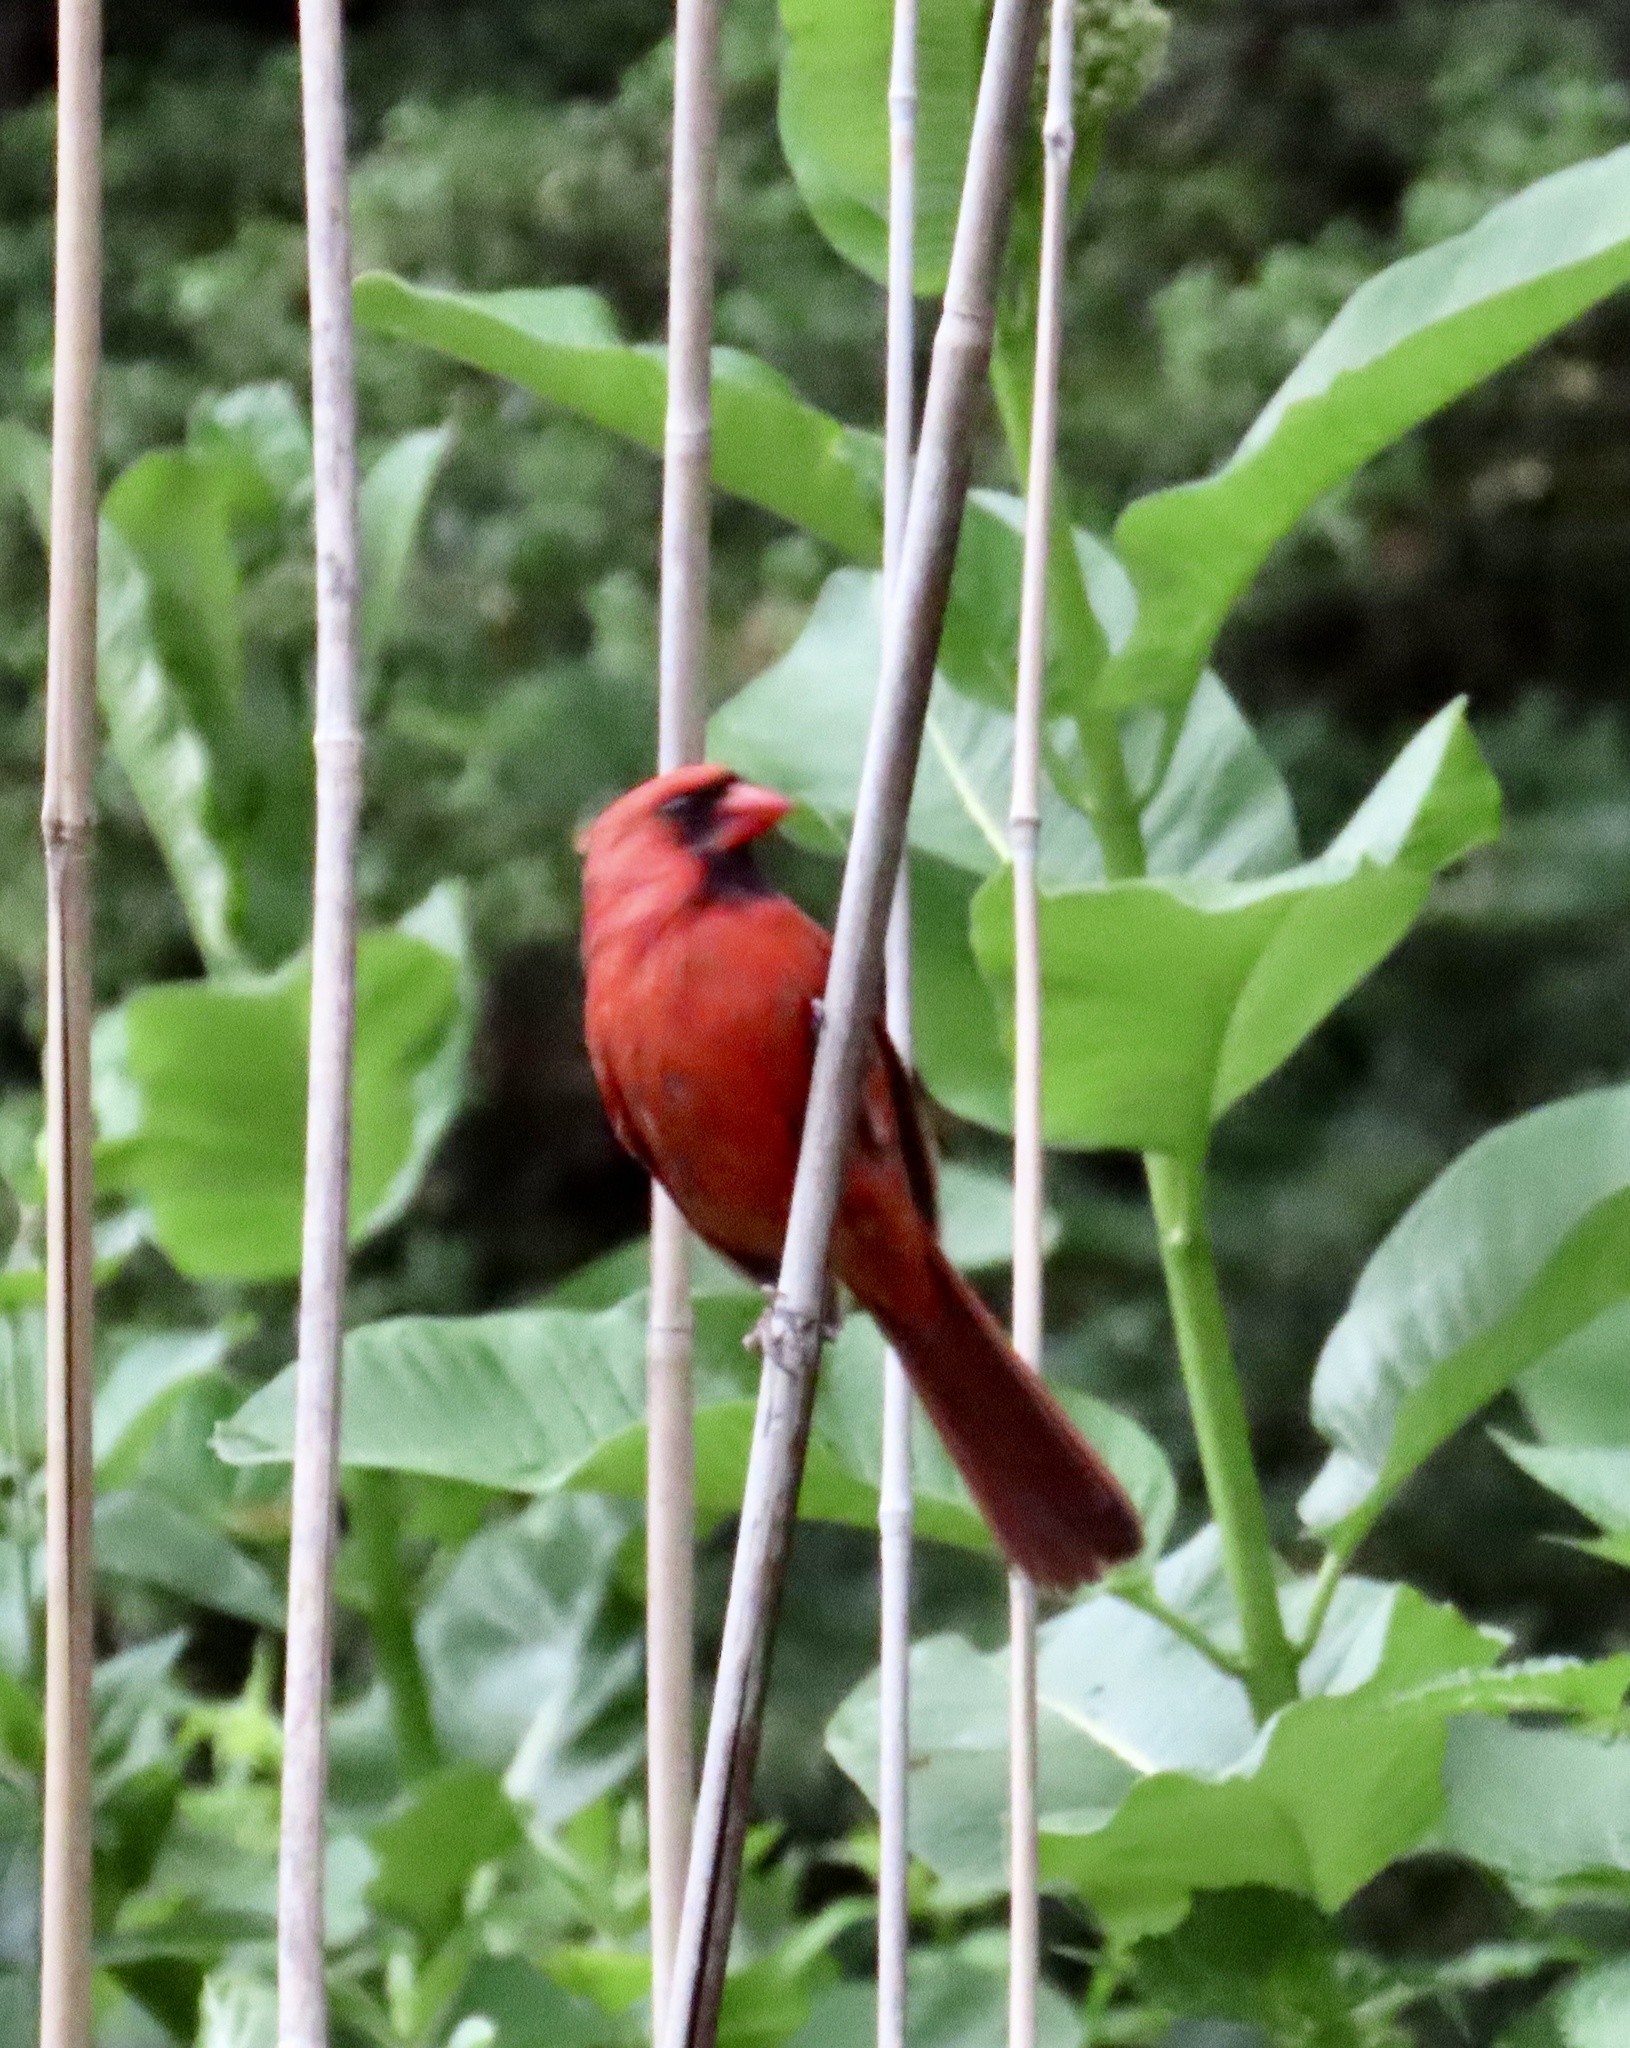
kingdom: Animalia
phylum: Chordata
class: Aves
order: Passeriformes
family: Cardinalidae
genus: Cardinalis
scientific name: Cardinalis cardinalis
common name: Northern cardinal
